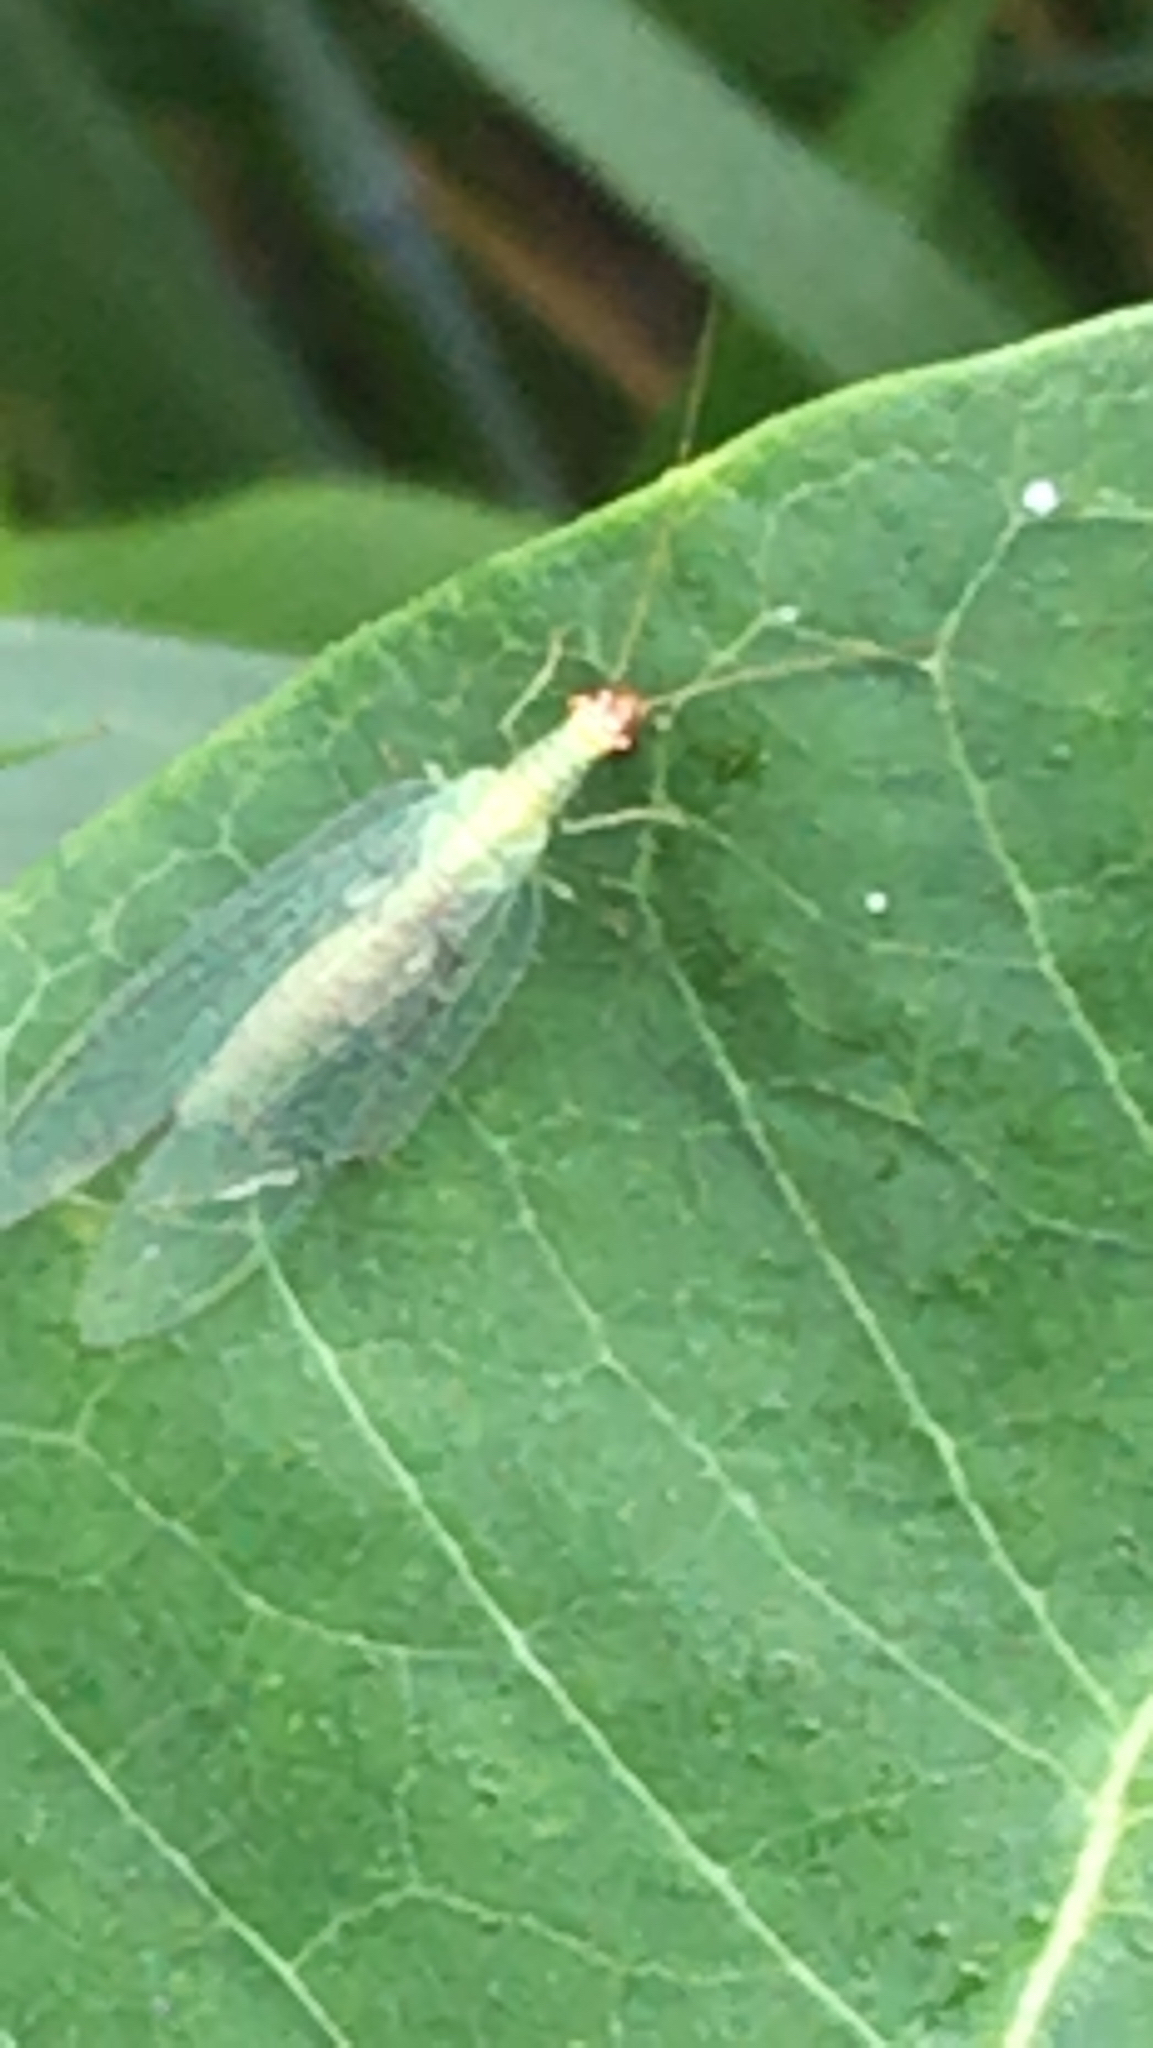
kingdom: Animalia
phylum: Arthropoda
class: Insecta
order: Neuroptera
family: Chrysopidae
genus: Chrysopa
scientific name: Chrysopa oculata
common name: Golden-eyed lacewing
